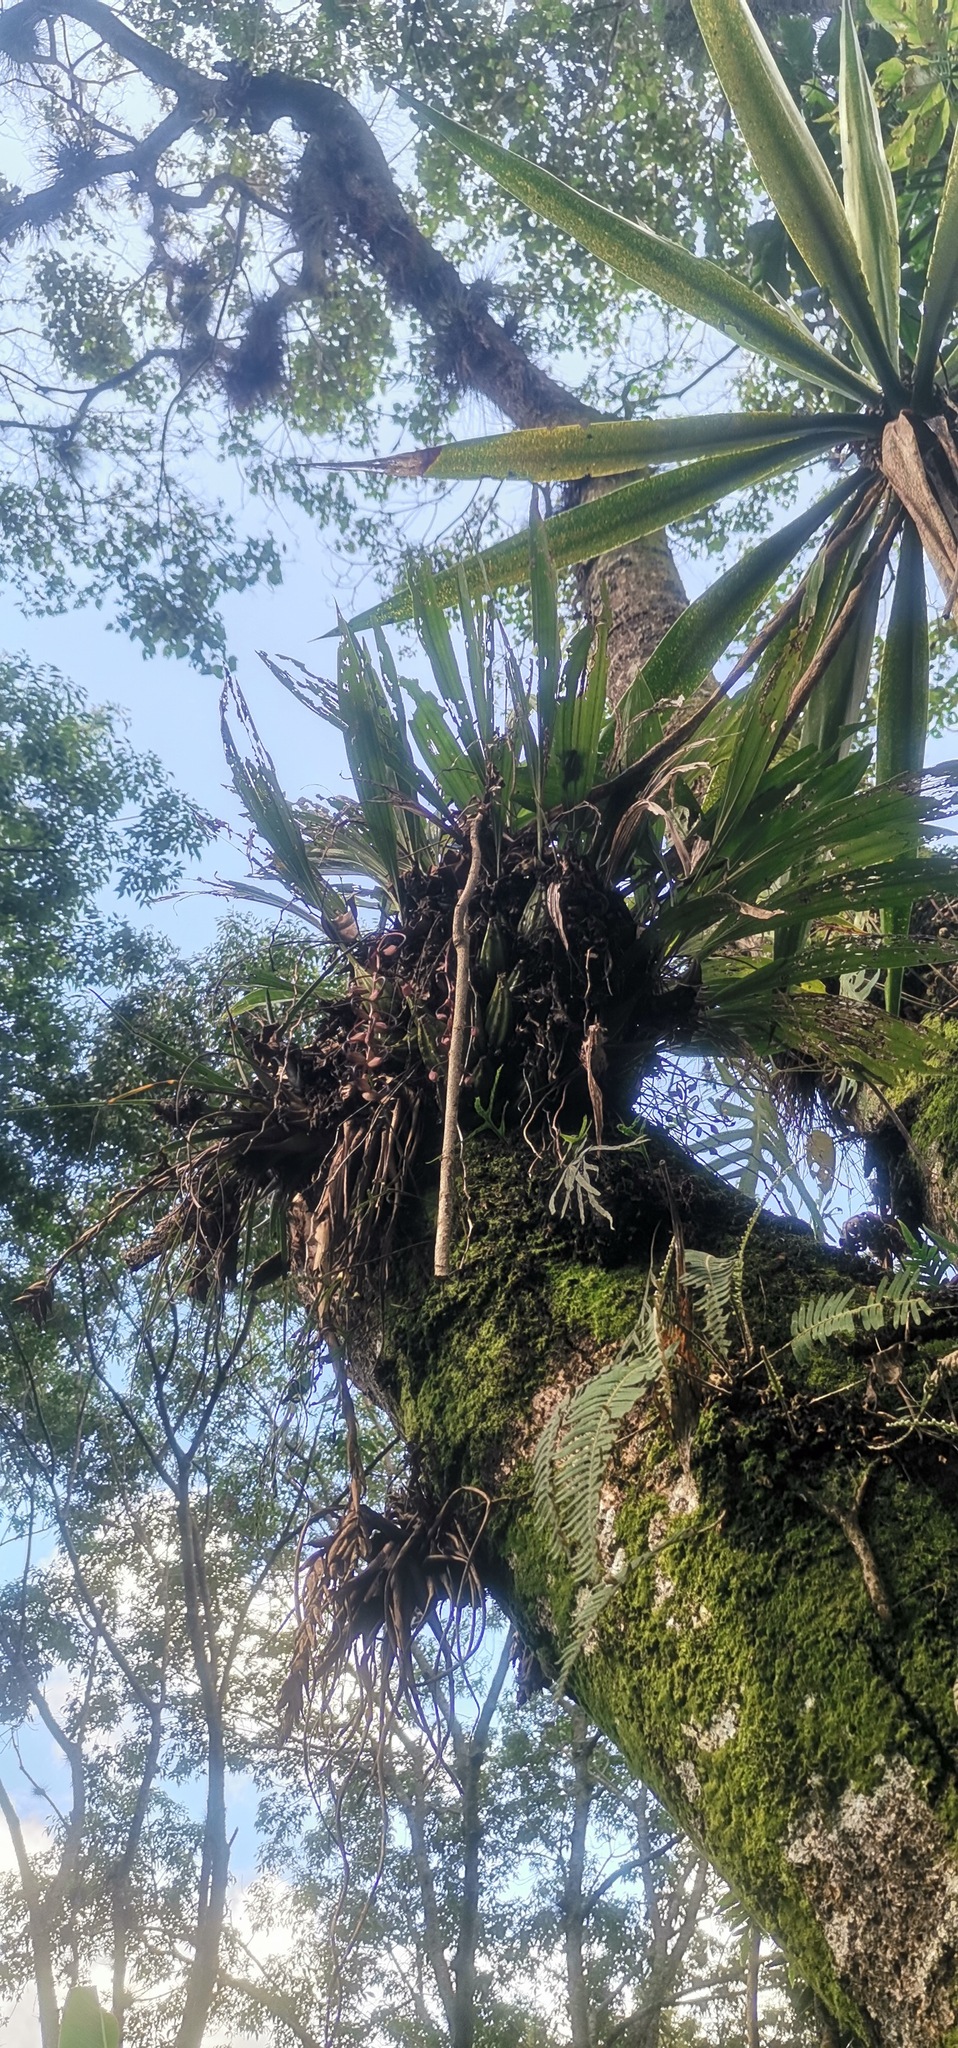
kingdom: Plantae
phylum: Tracheophyta
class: Liliopsida
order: Asparagales
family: Orchidaceae
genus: Gongora
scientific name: Gongora galeata
